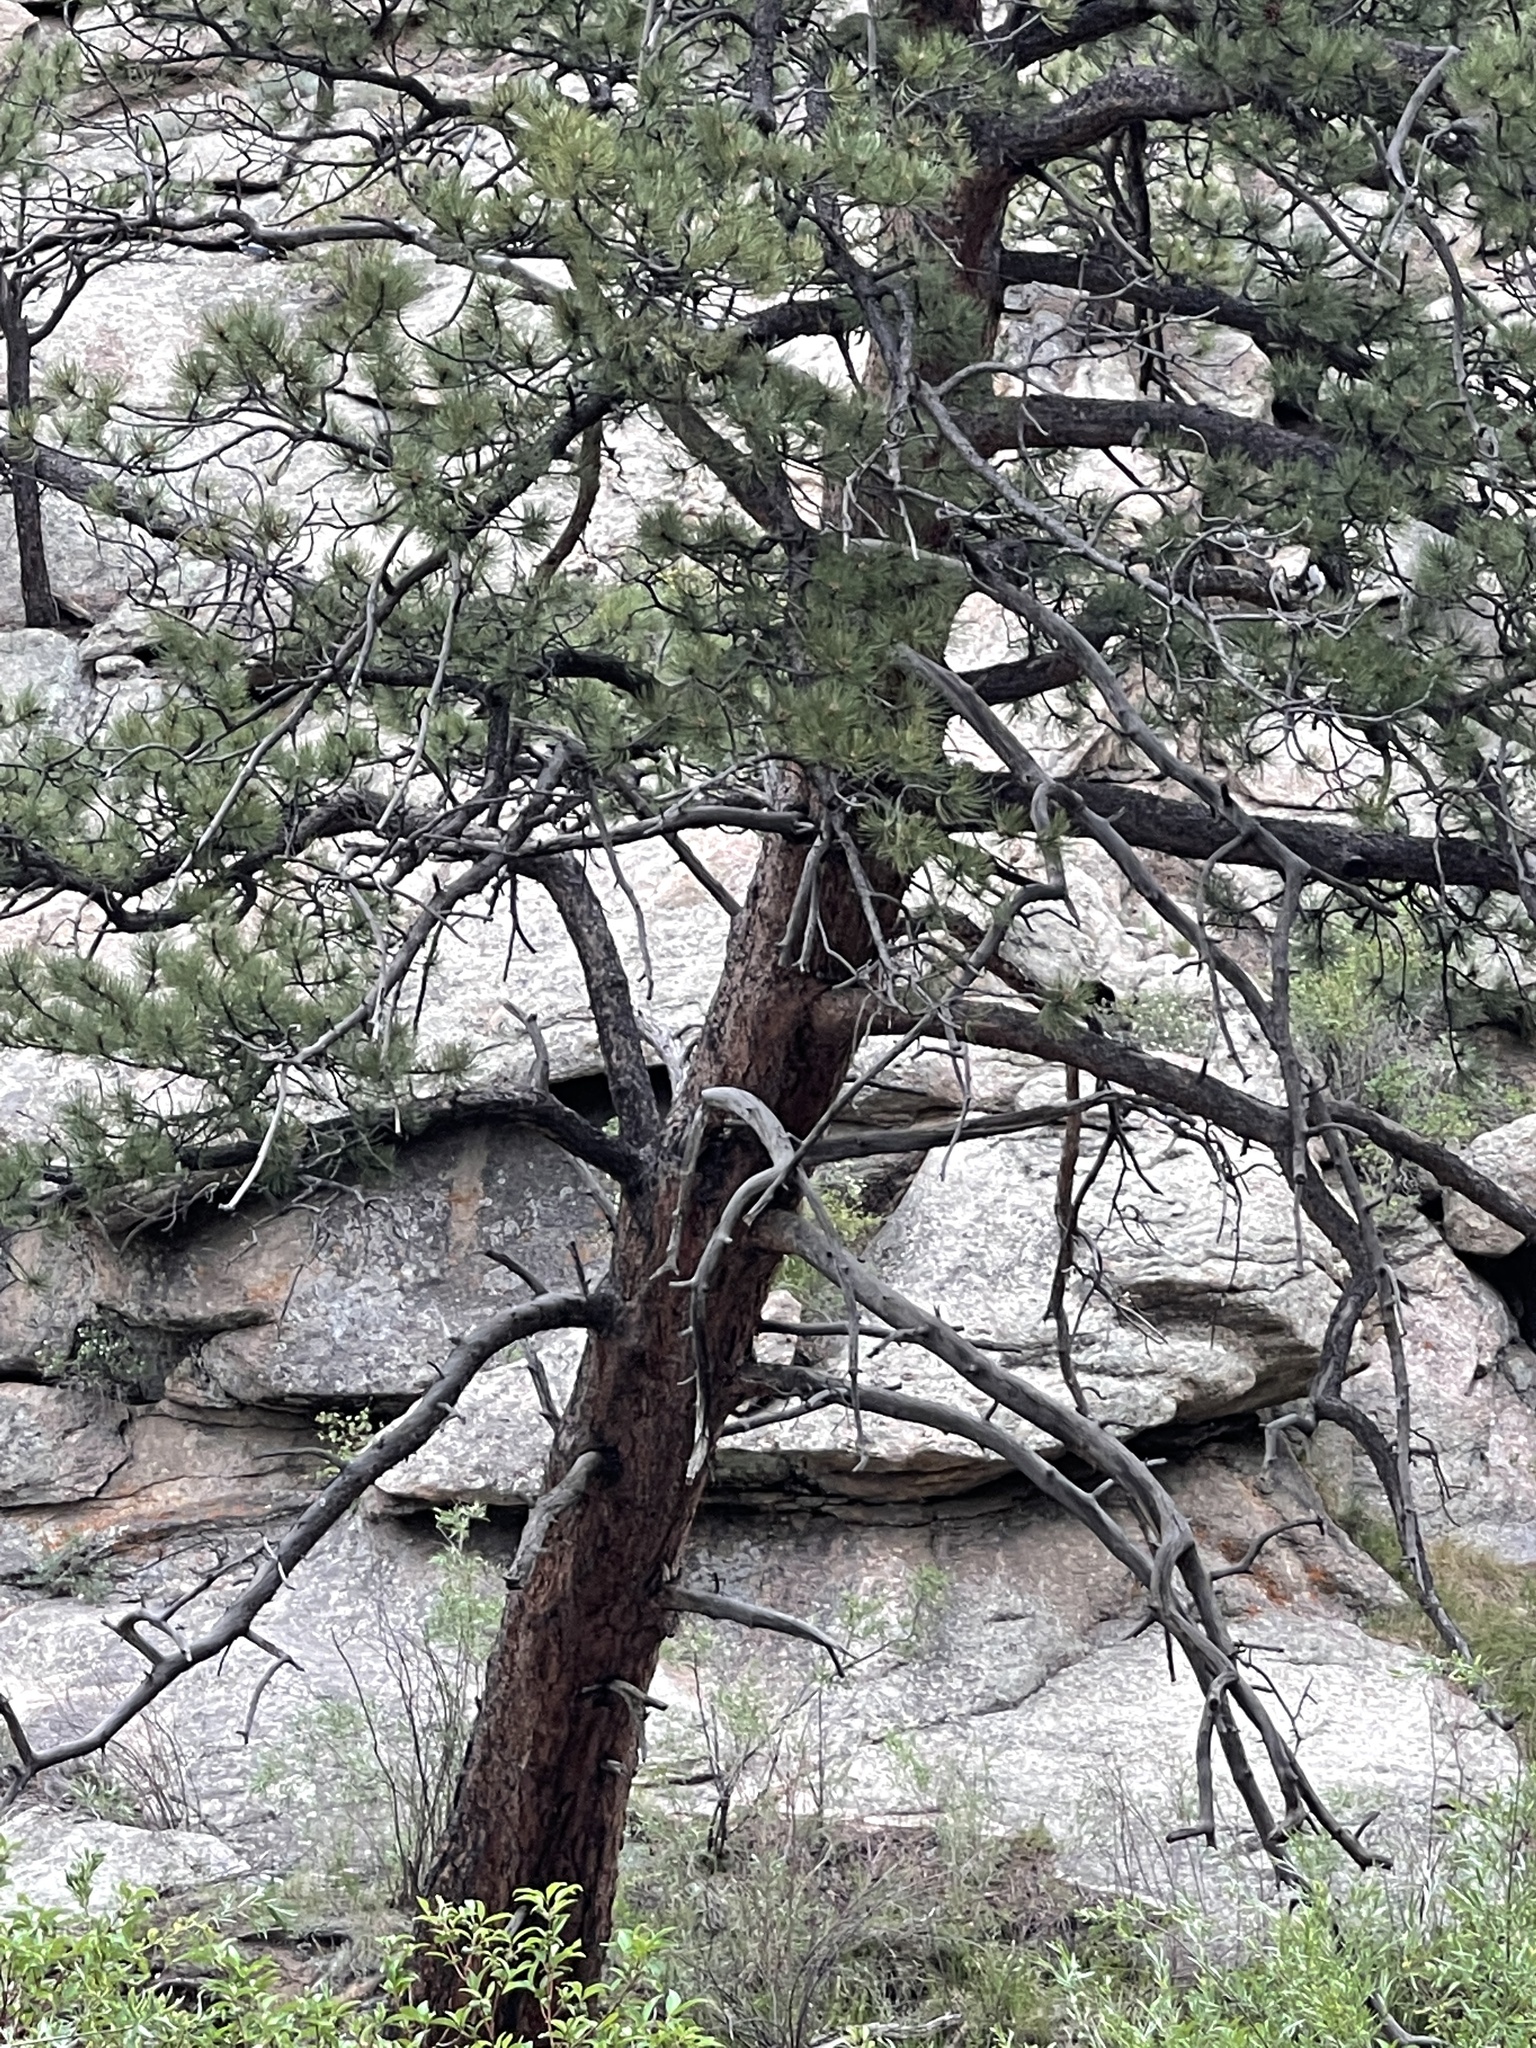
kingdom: Plantae
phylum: Tracheophyta
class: Pinopsida
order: Pinales
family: Pinaceae
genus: Pinus
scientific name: Pinus ponderosa
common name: Western yellow-pine
